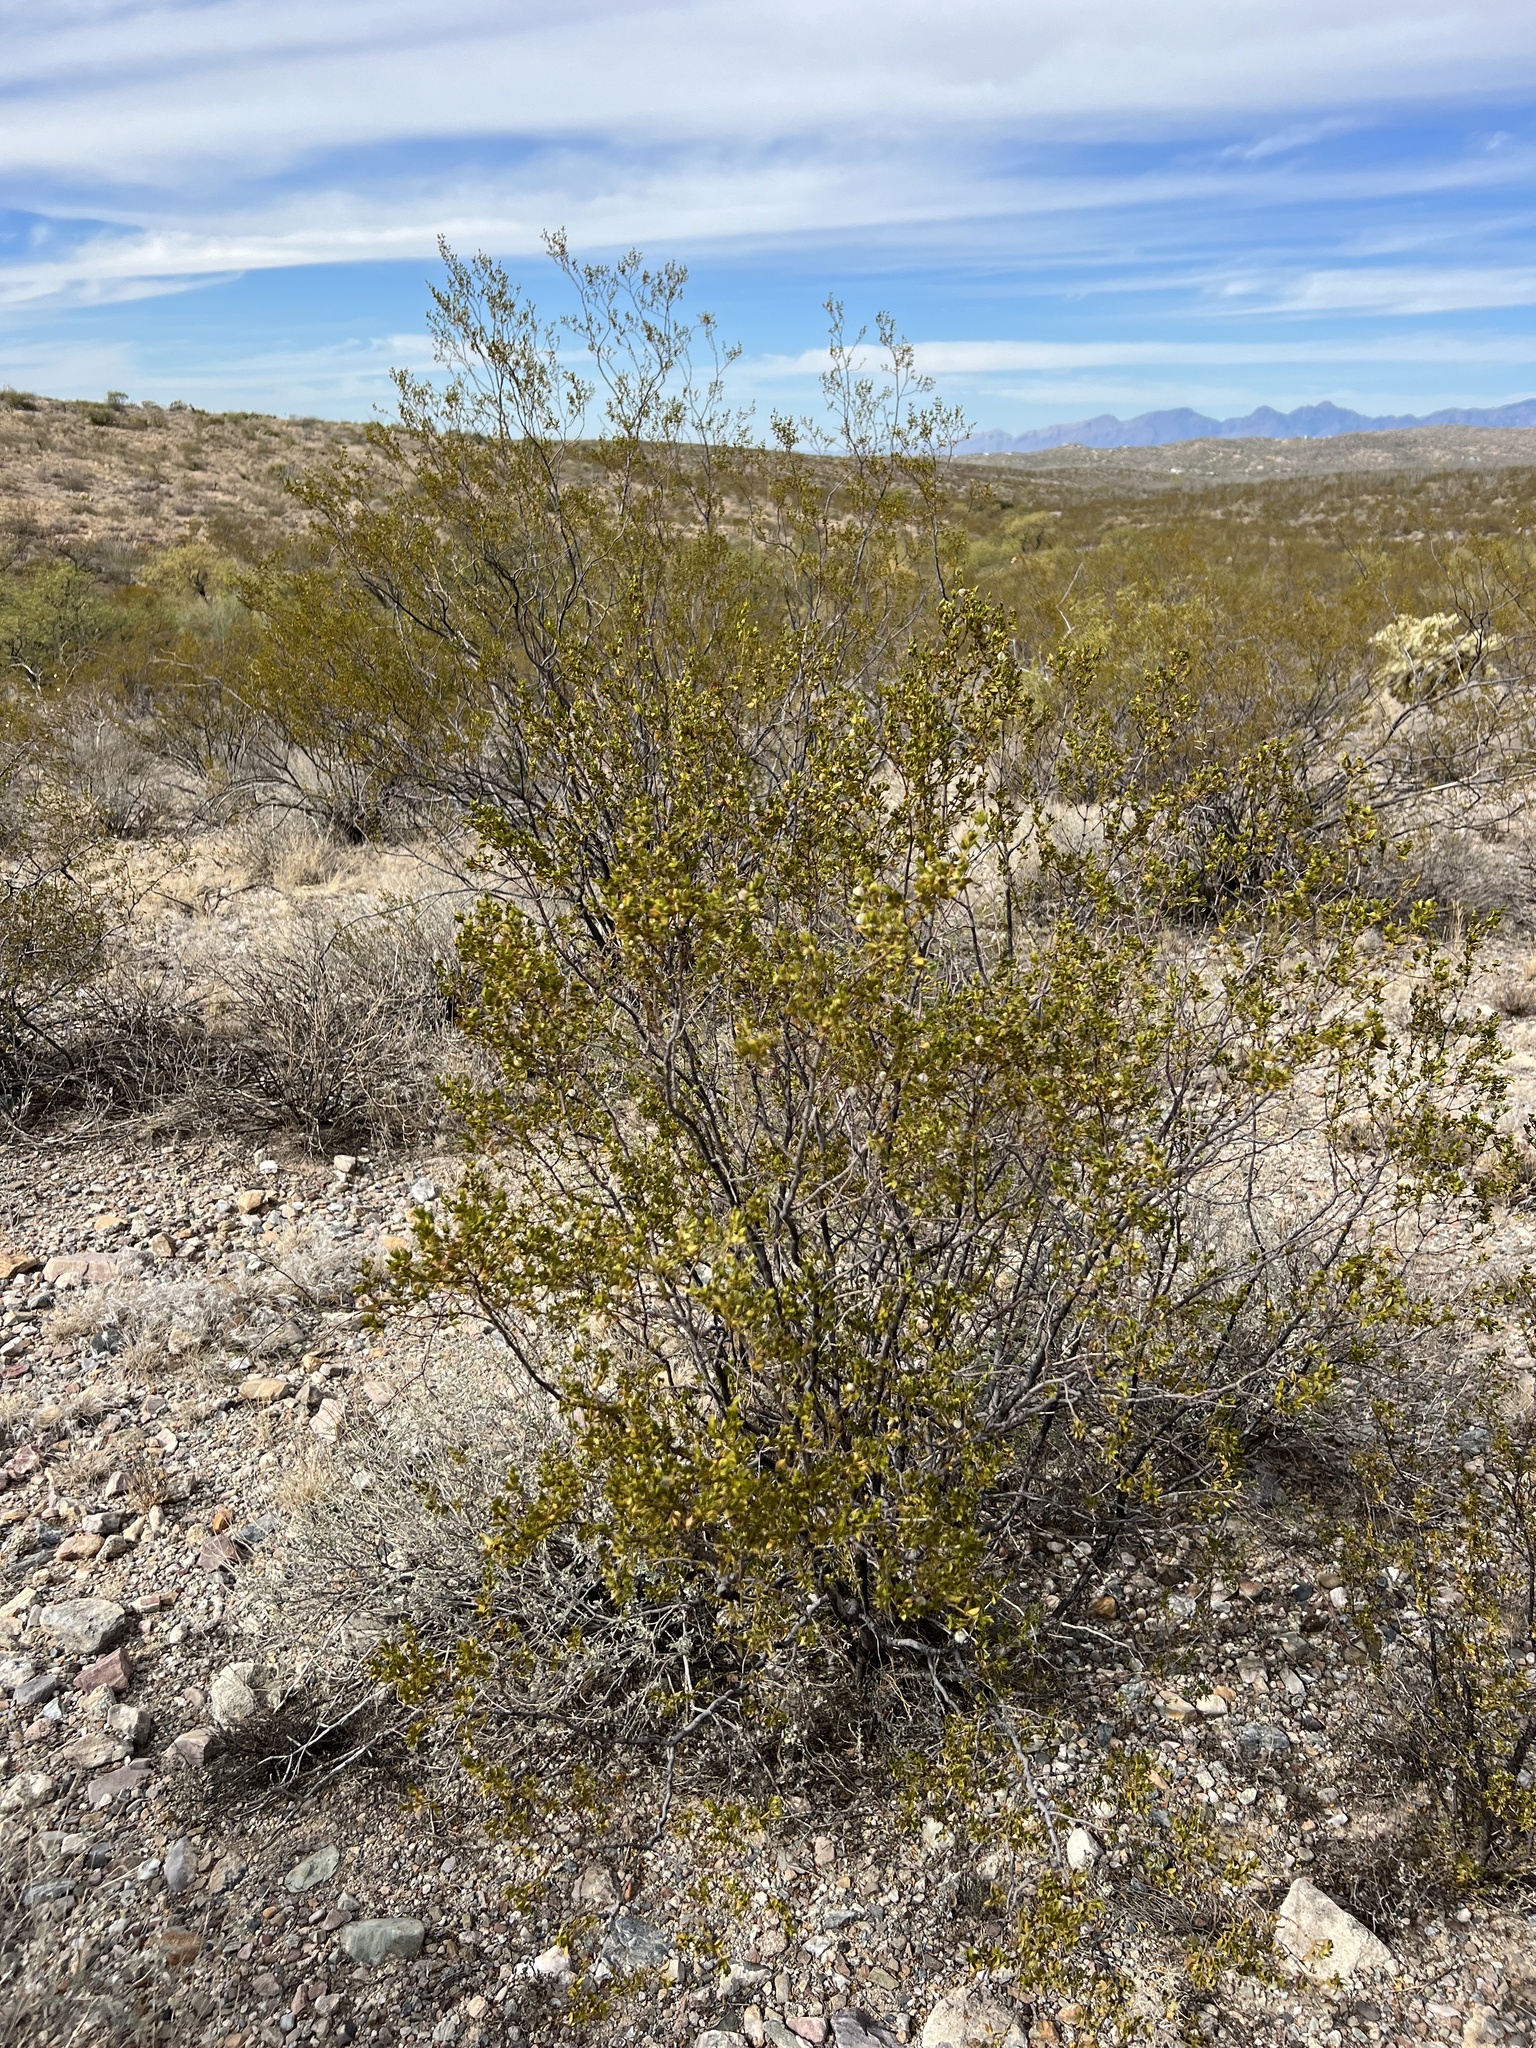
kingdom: Plantae
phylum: Tracheophyta
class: Magnoliopsida
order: Zygophyllales
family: Zygophyllaceae
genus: Larrea
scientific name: Larrea tridentata
